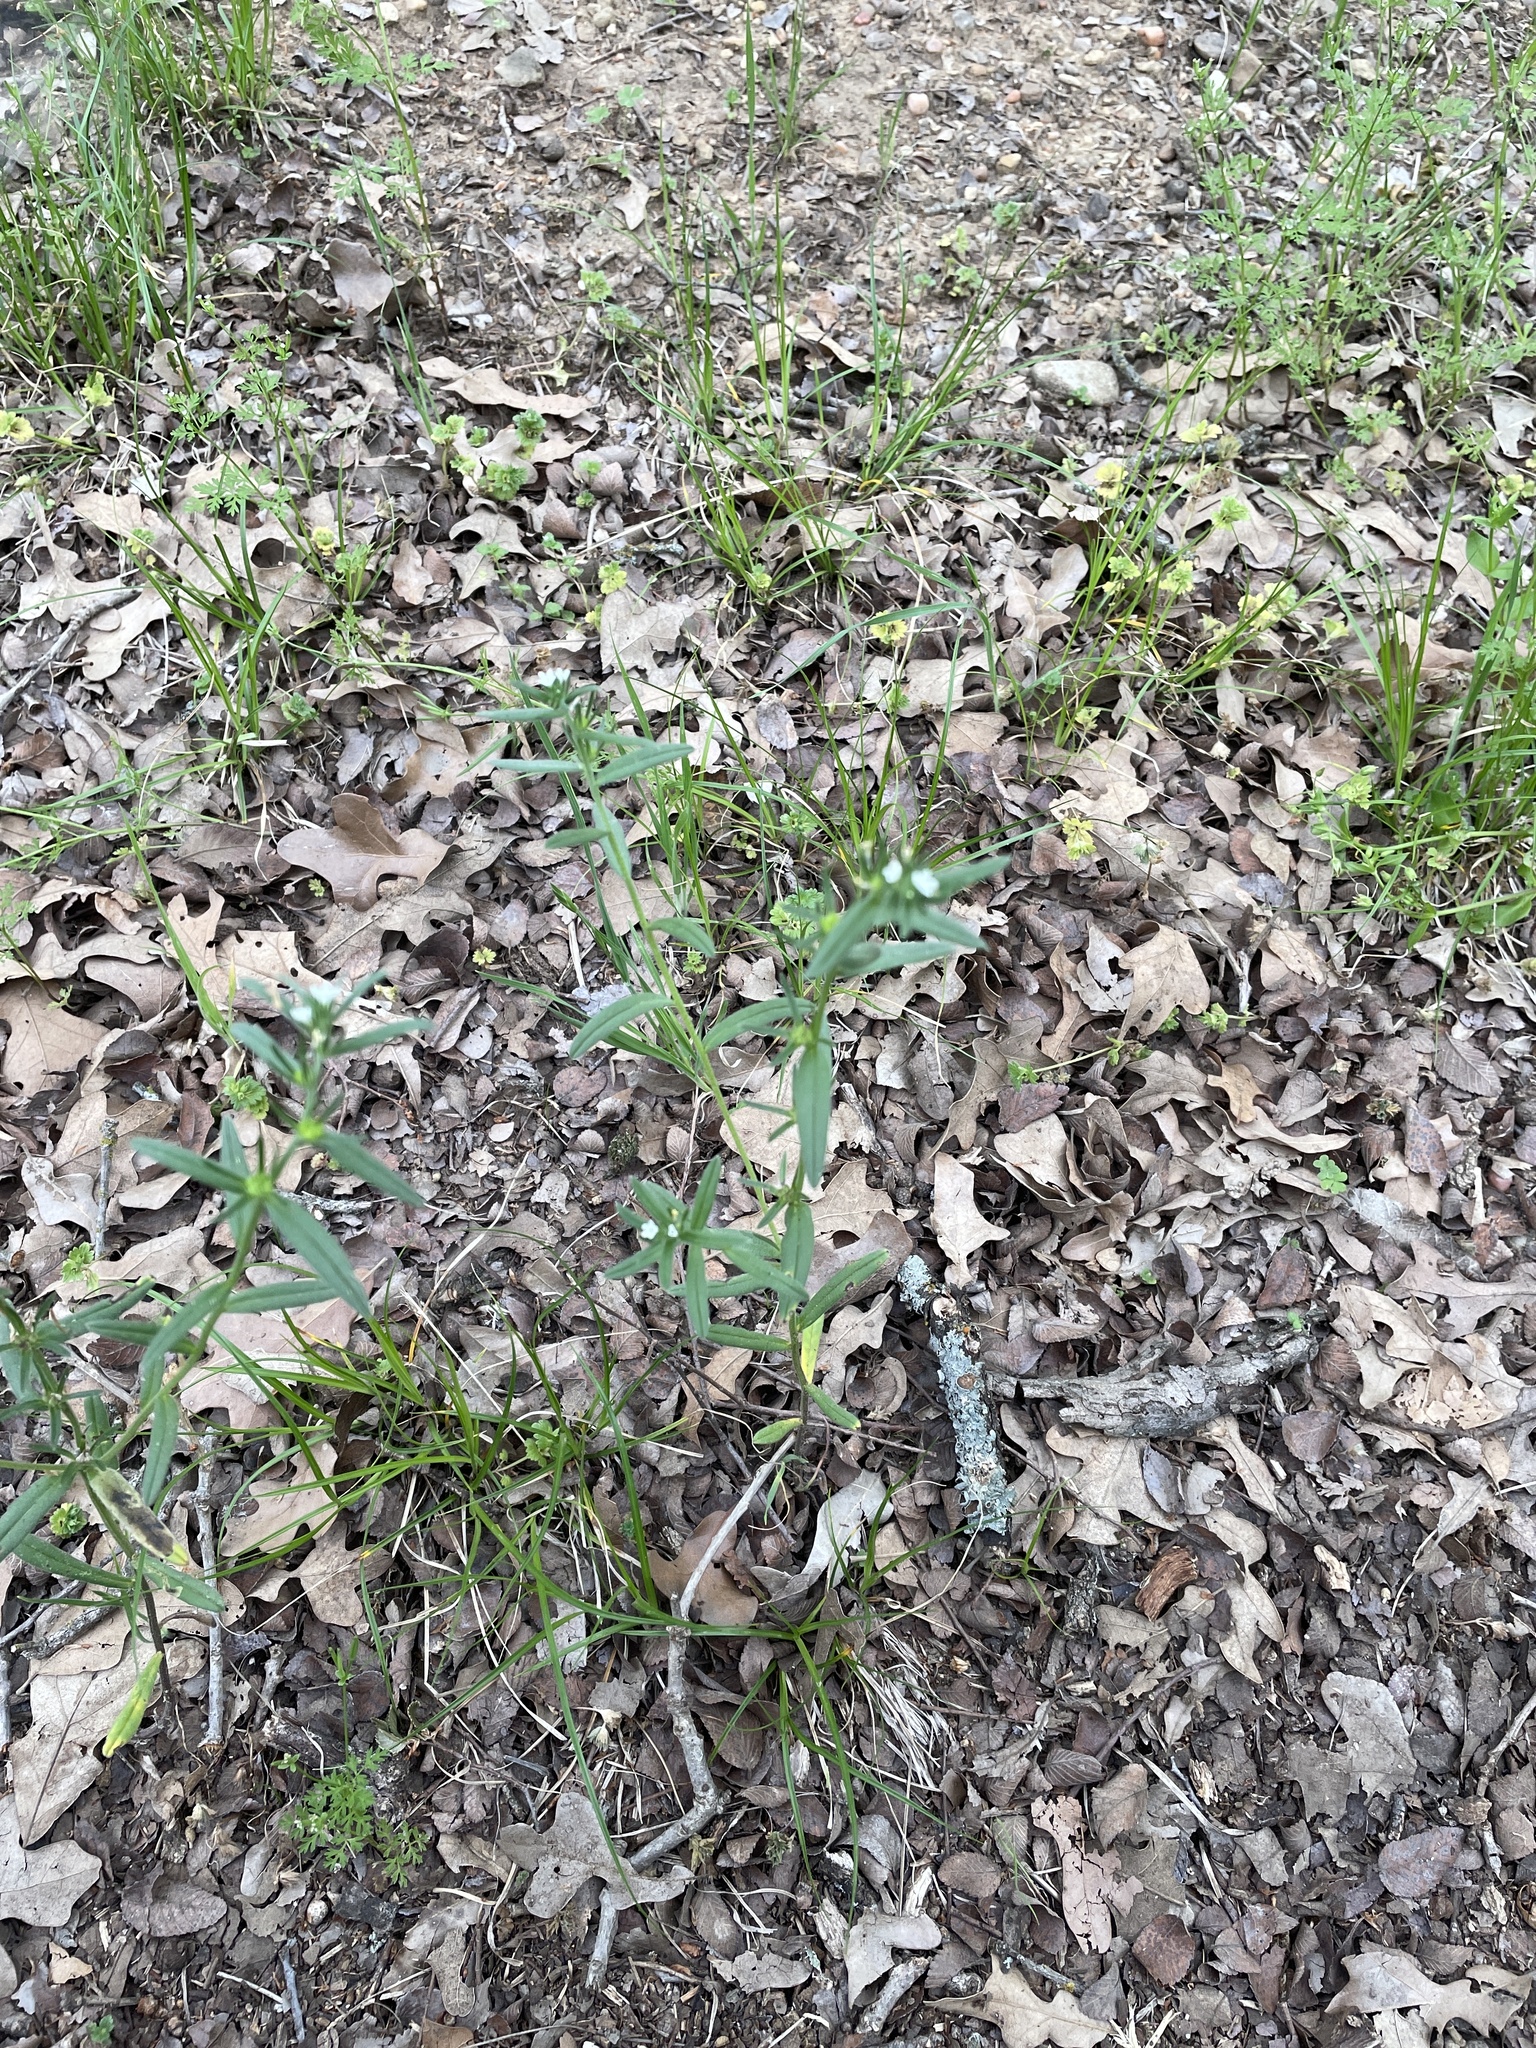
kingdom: Plantae
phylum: Tracheophyta
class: Magnoliopsida
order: Boraginales
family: Boraginaceae
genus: Buglossoides
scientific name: Buglossoides arvensis
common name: Corn gromwell
